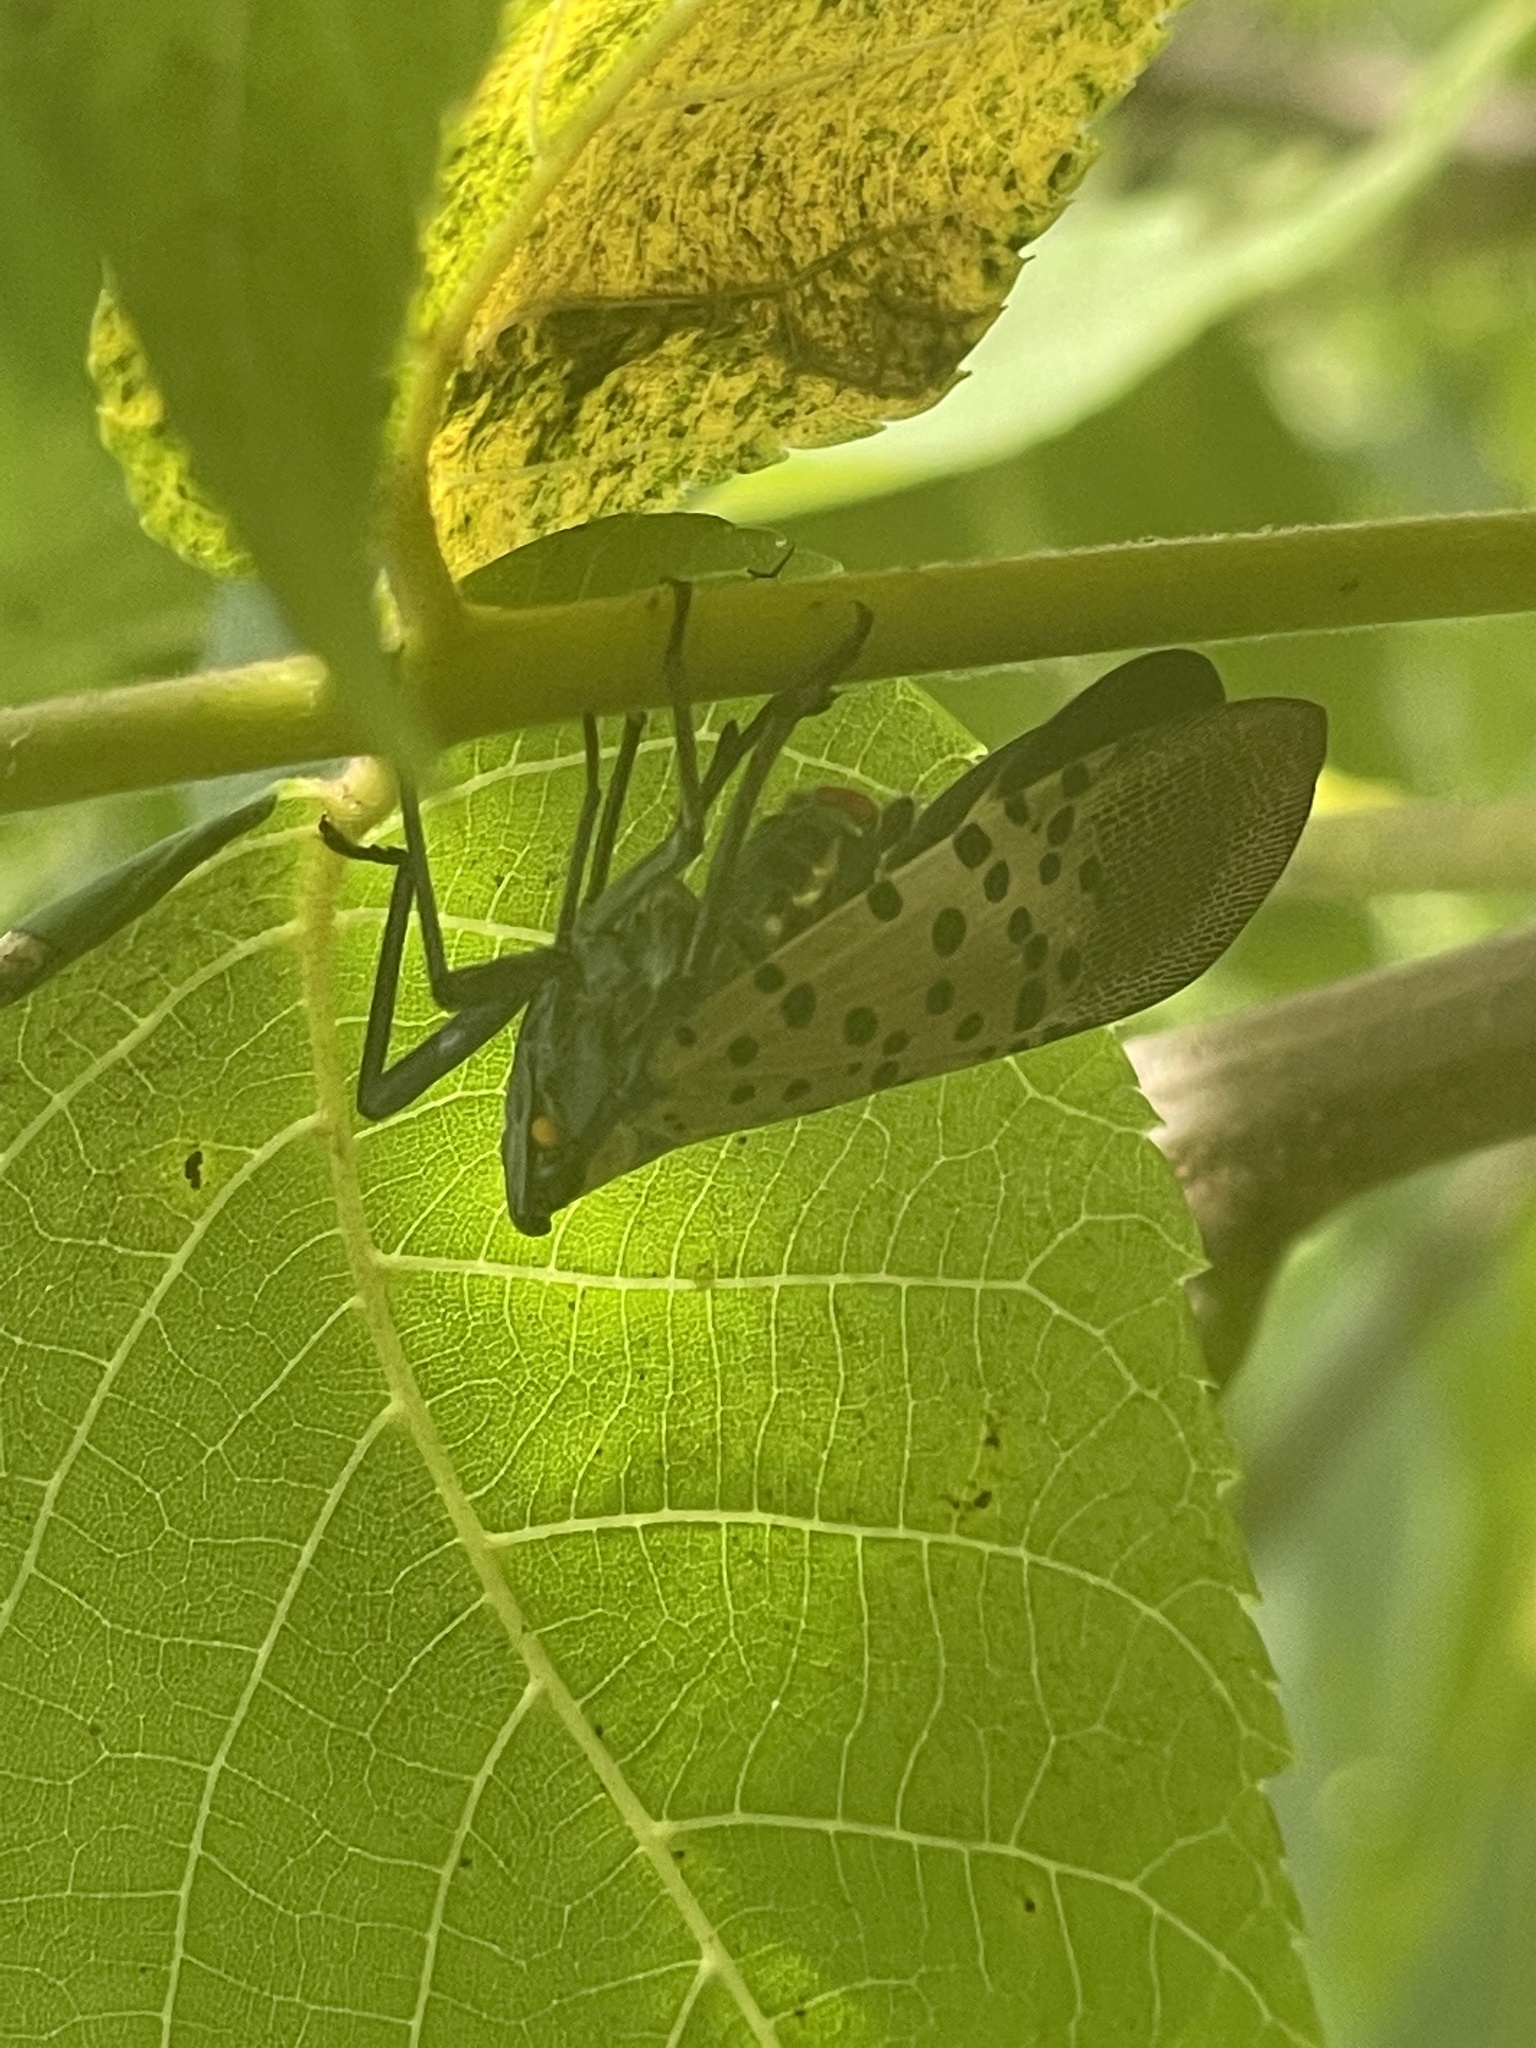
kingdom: Animalia
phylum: Arthropoda
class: Insecta
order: Hemiptera
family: Fulgoridae
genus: Lycorma
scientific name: Lycorma delicatula
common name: Spotted lanternfly
